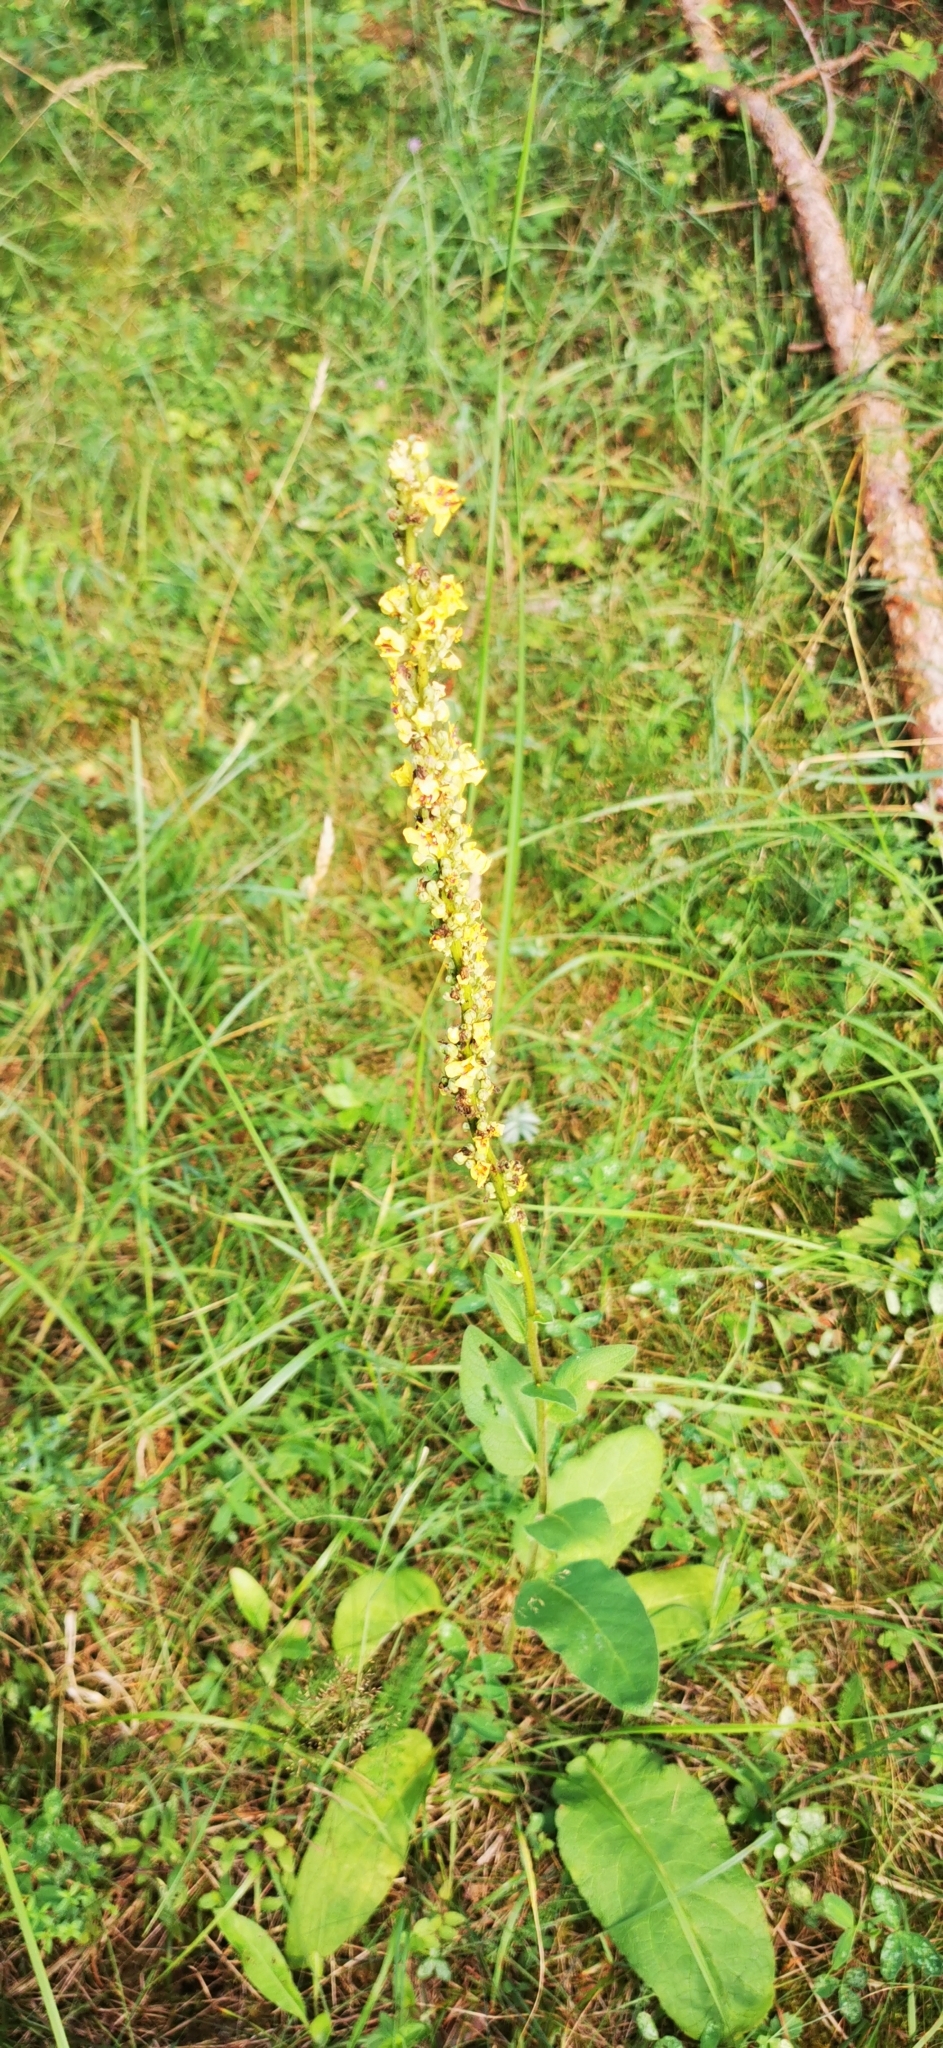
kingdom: Plantae
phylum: Tracheophyta
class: Magnoliopsida
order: Lamiales
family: Scrophulariaceae
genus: Verbascum
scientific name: Verbascum nigrum
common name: Dark mullein
